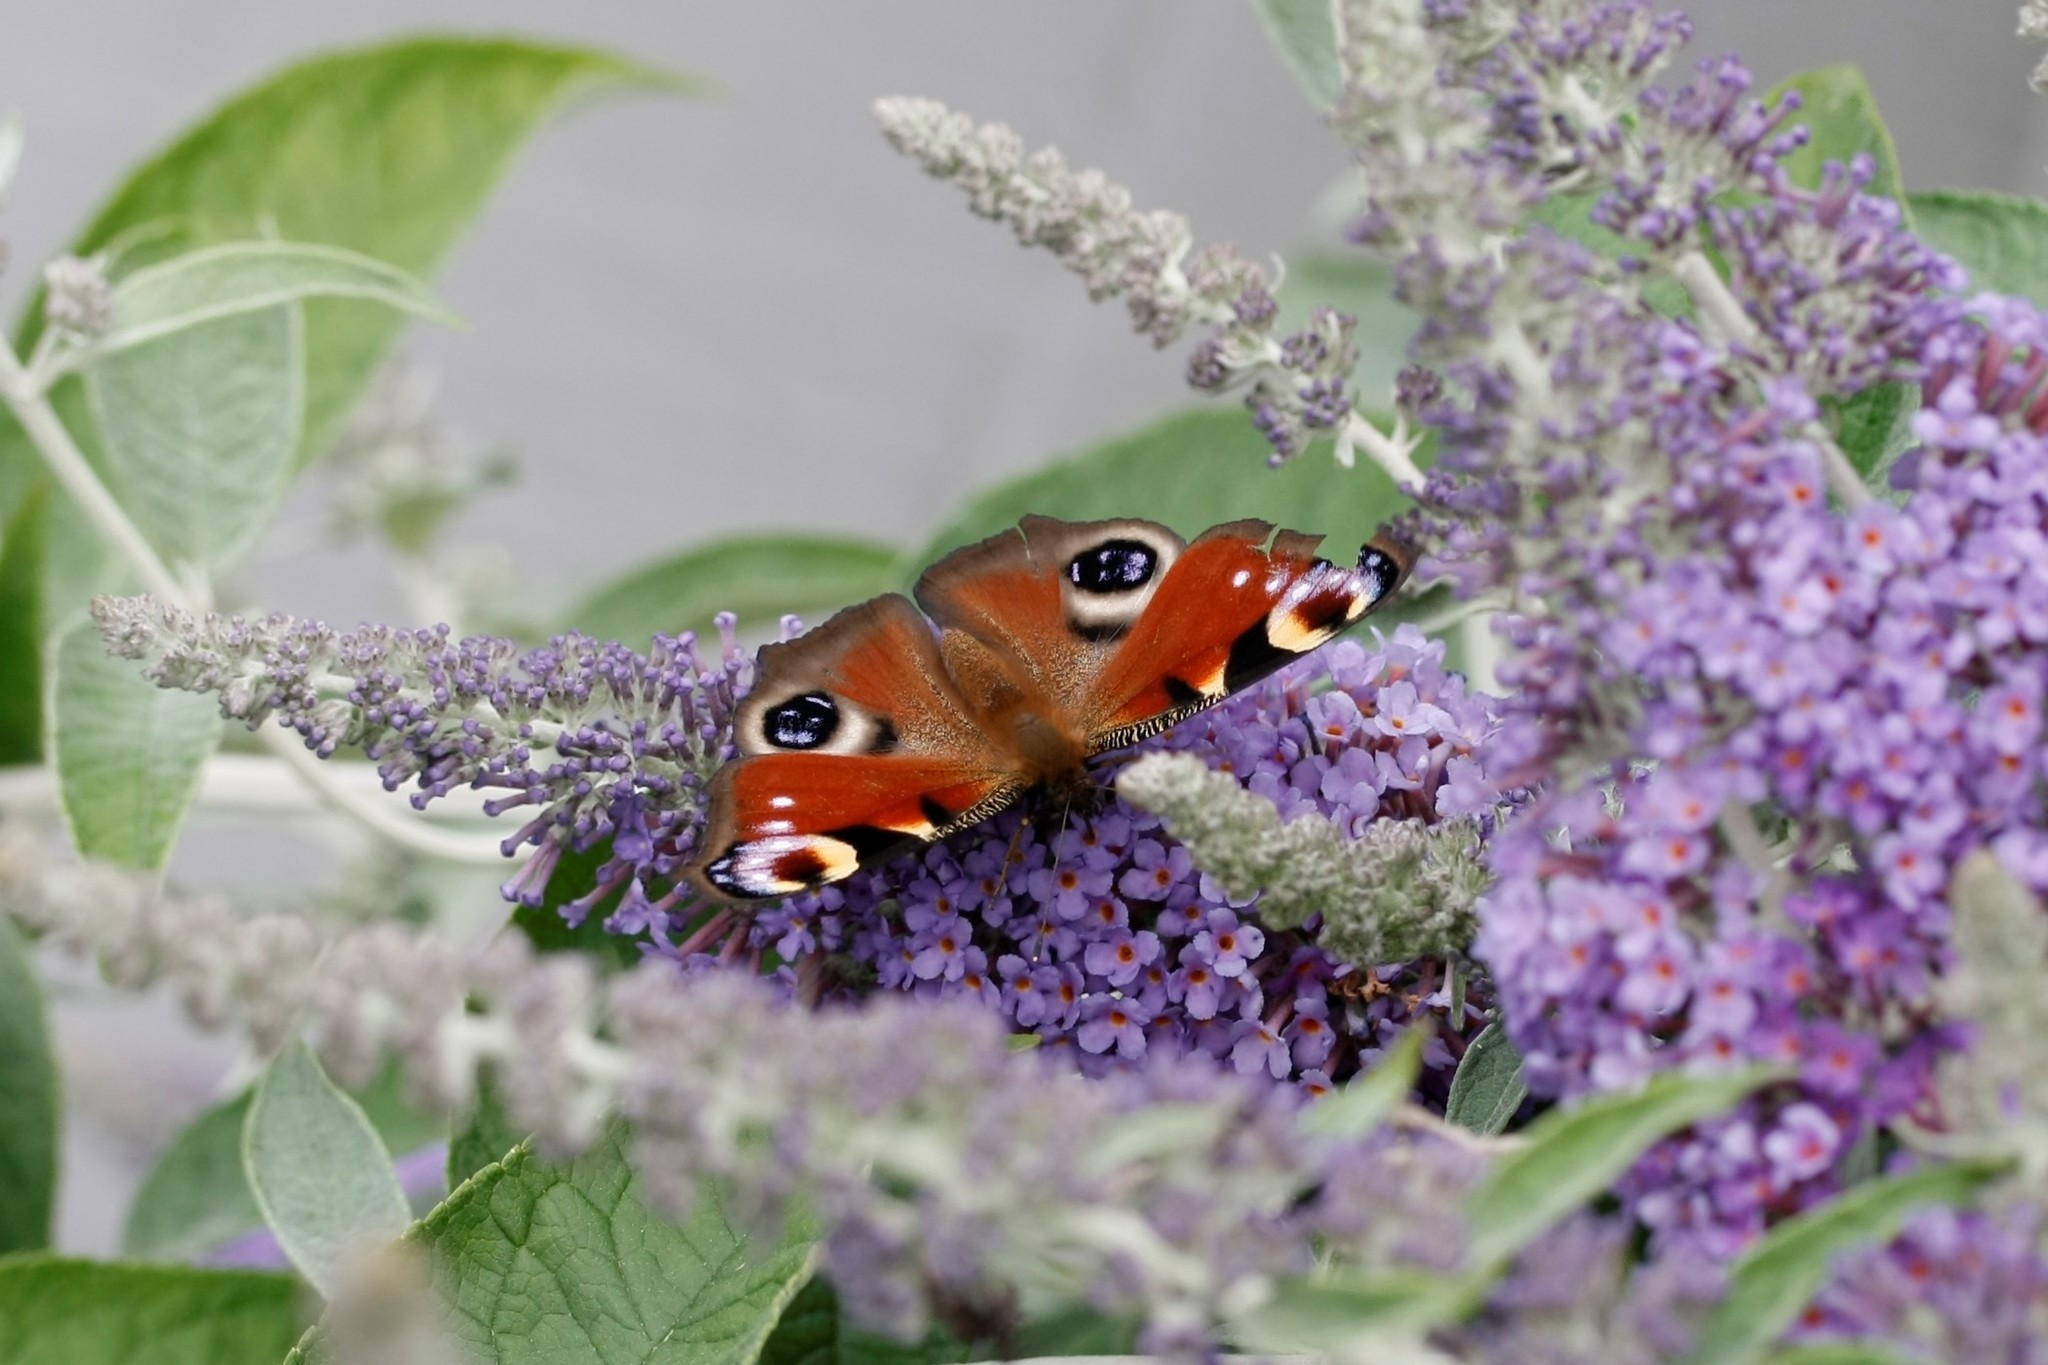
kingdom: Animalia
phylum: Arthropoda
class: Insecta
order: Lepidoptera
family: Nymphalidae
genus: Aglais
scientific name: Aglais io
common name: Peacock
